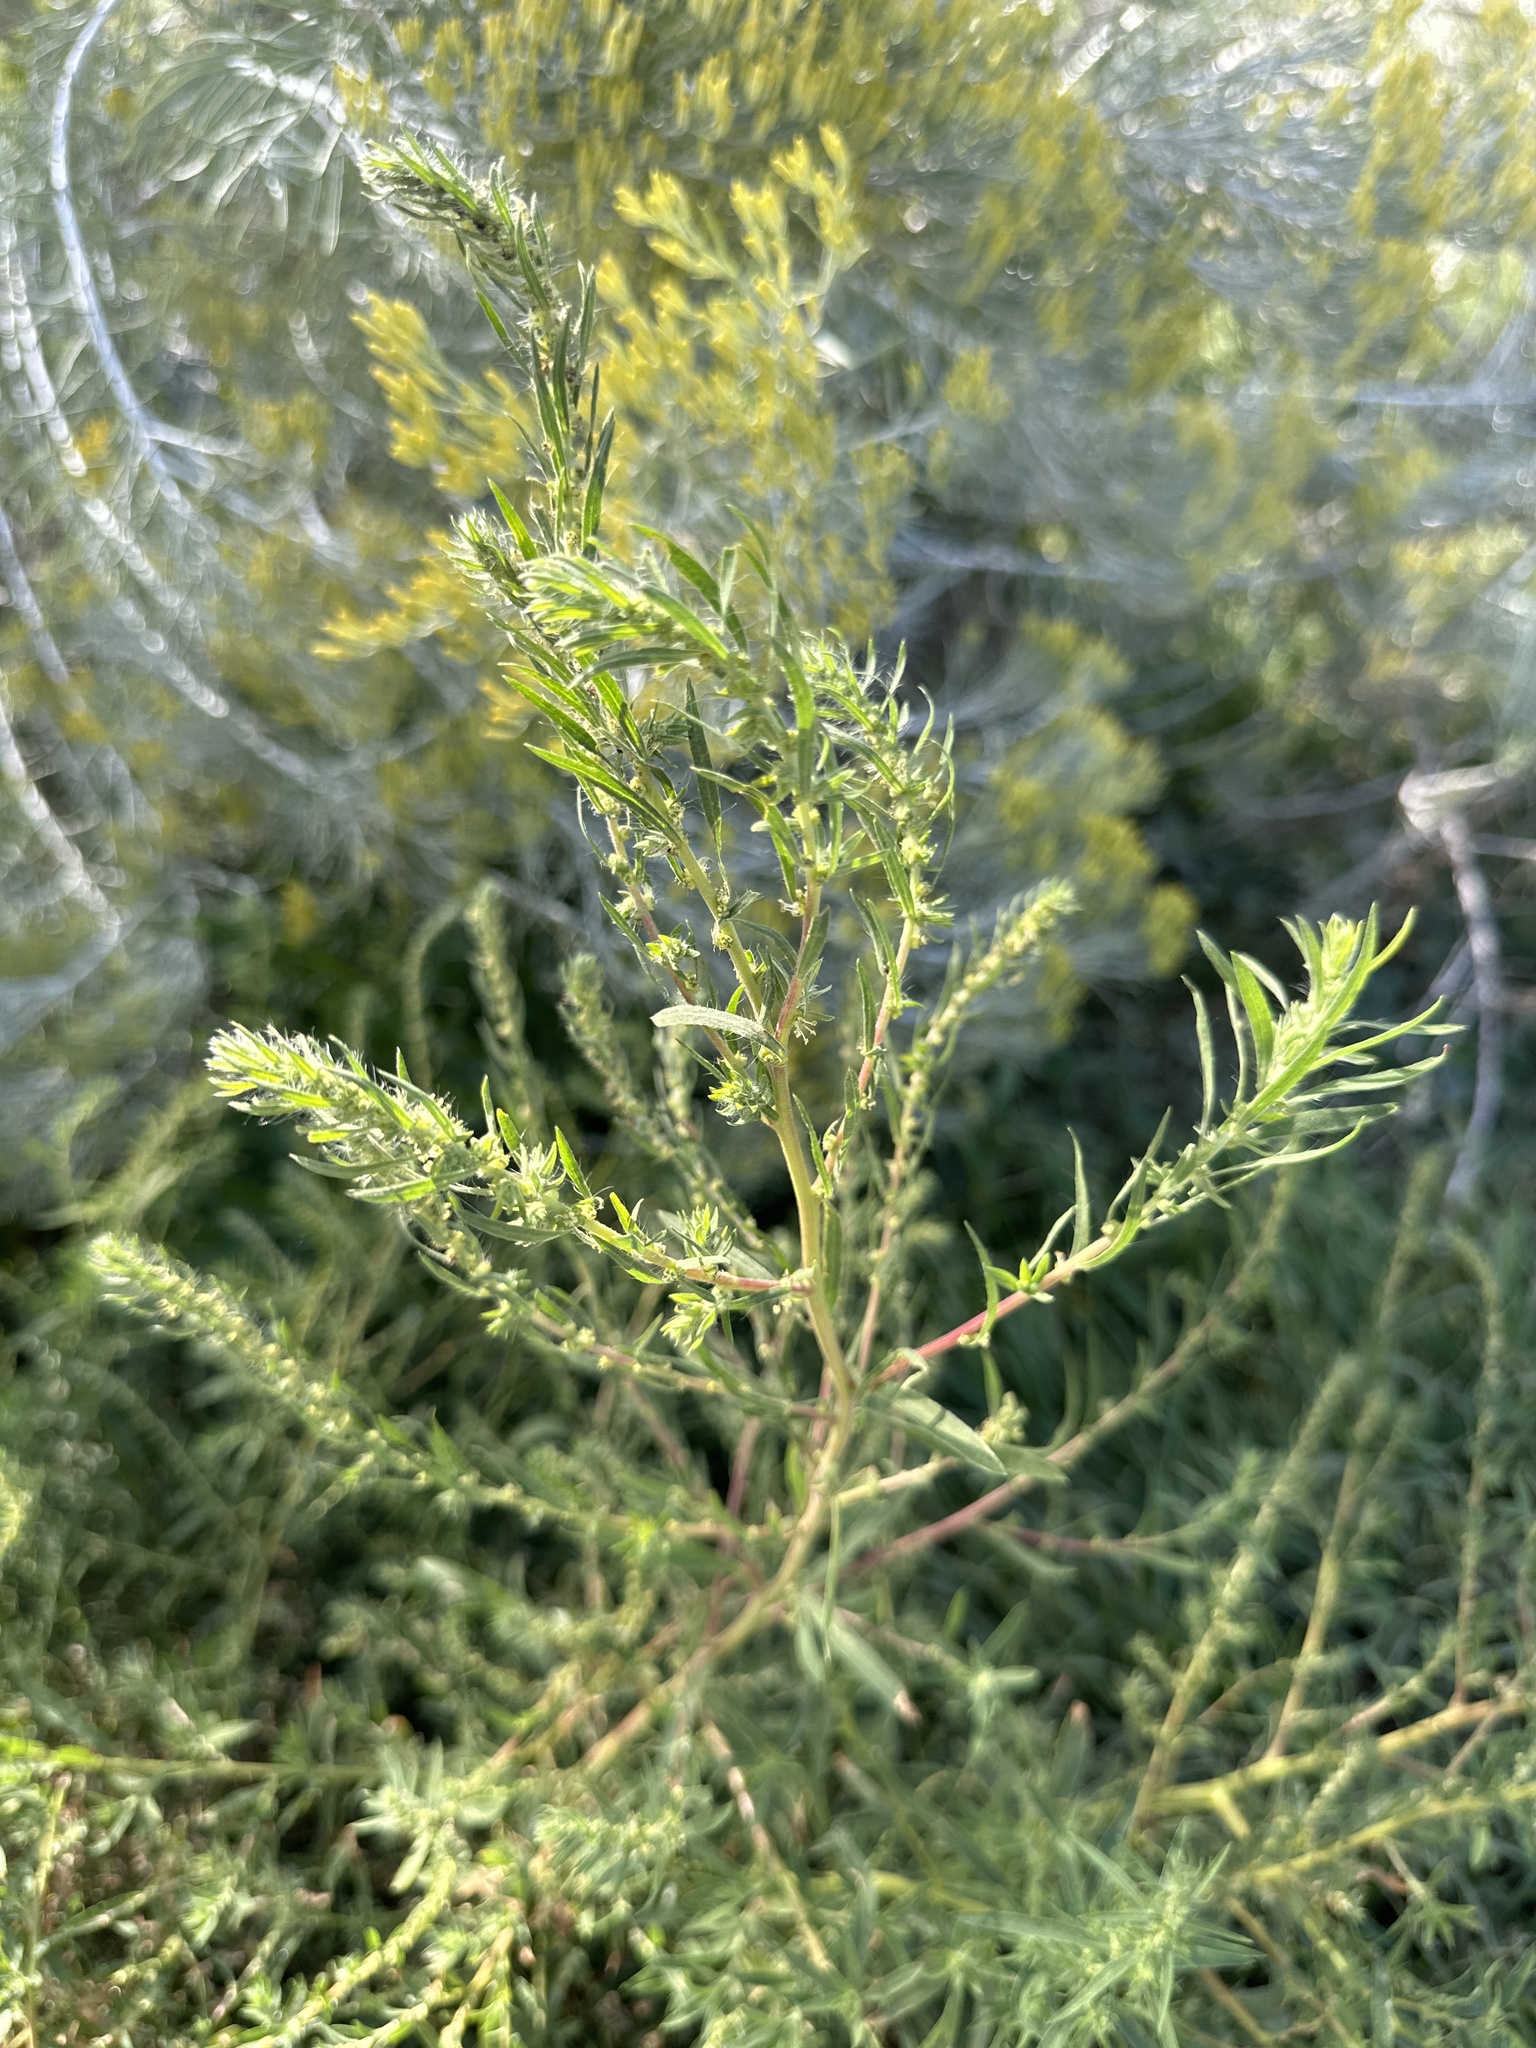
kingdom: Plantae
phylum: Tracheophyta
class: Magnoliopsida
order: Caryophyllales
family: Amaranthaceae
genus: Bassia
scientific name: Bassia scoparia
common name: Belvedere
